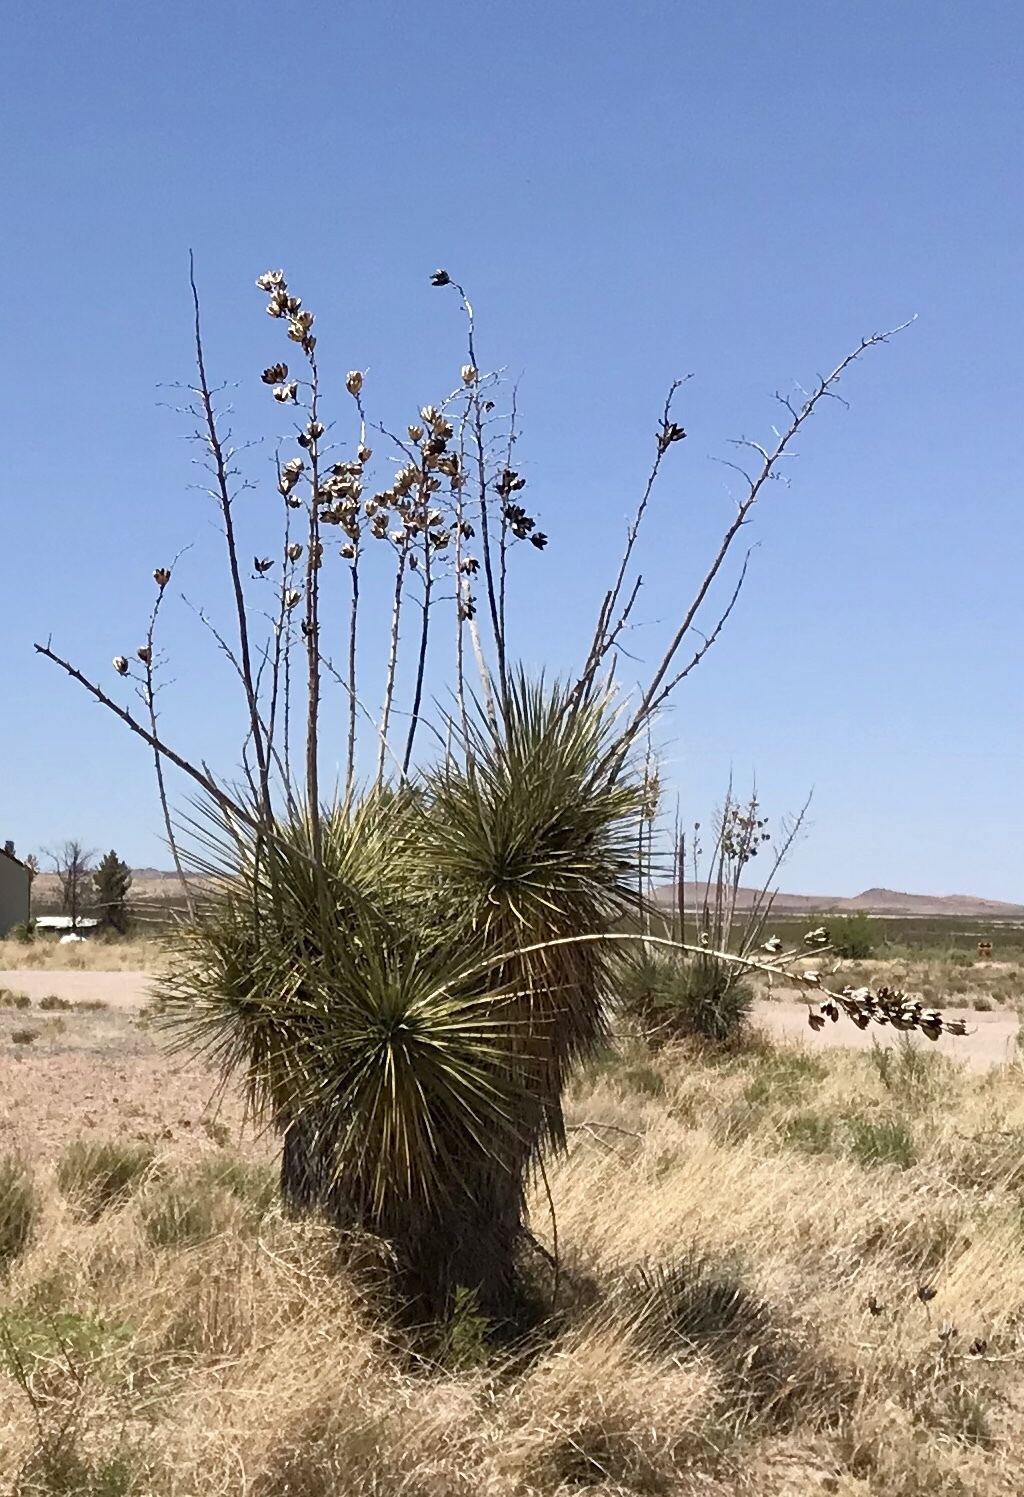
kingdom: Plantae
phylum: Tracheophyta
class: Liliopsida
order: Asparagales
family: Asparagaceae
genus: Yucca
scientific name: Yucca elata
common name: Palmella
